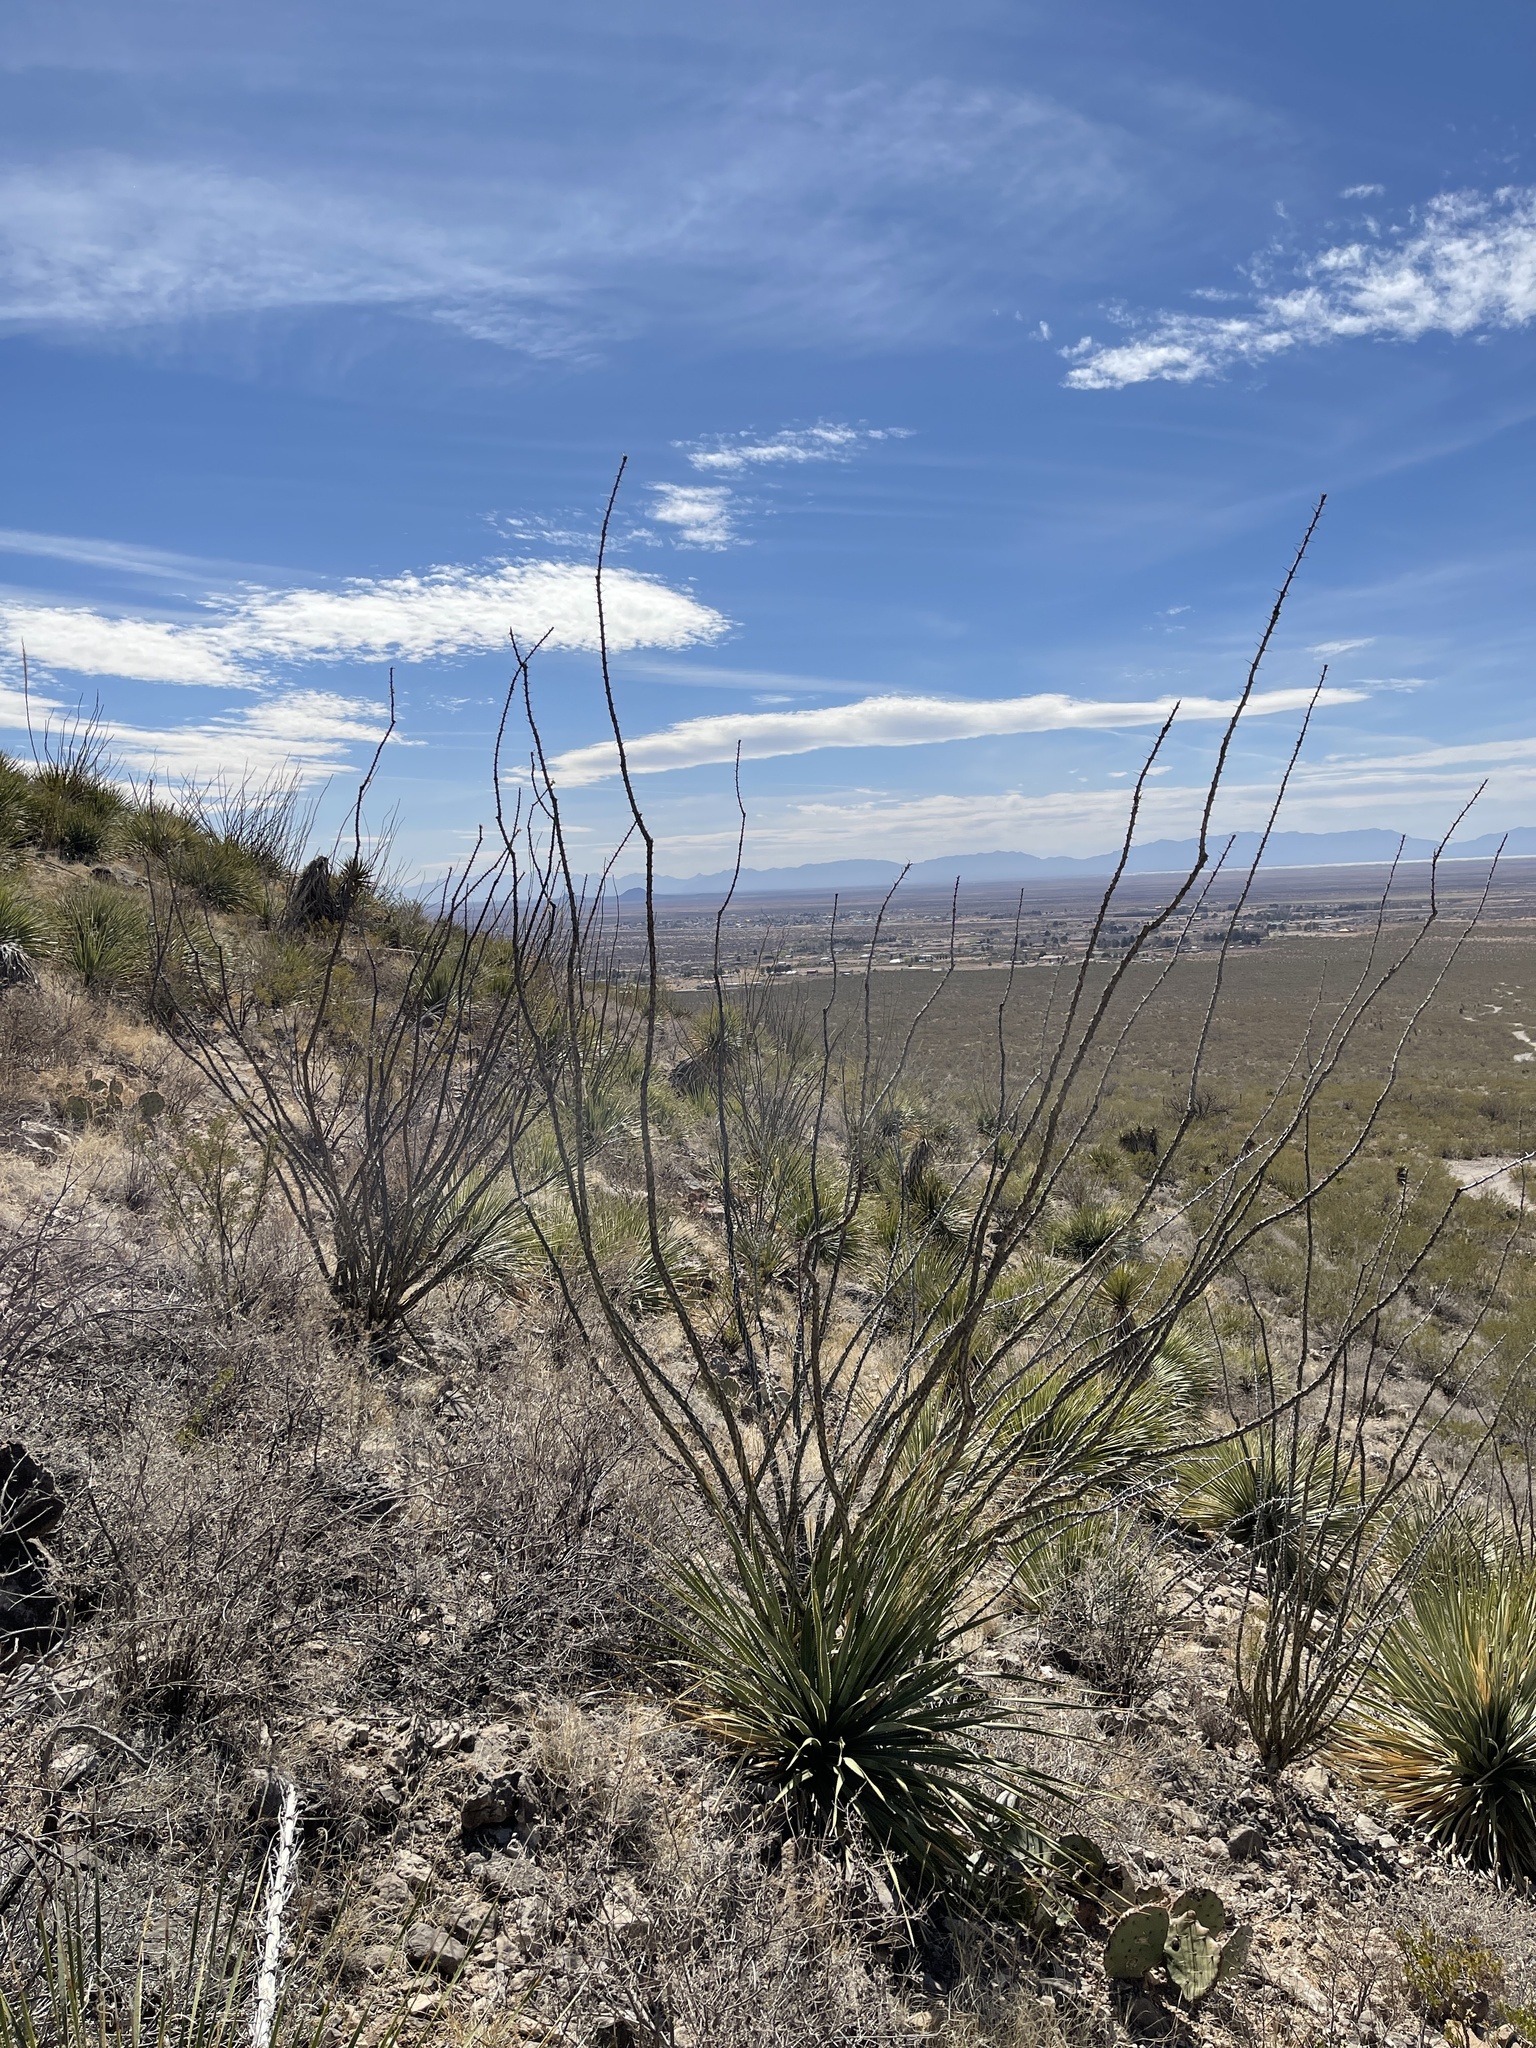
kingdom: Plantae
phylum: Tracheophyta
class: Magnoliopsida
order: Ericales
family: Fouquieriaceae
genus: Fouquieria
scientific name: Fouquieria splendens
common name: Vine-cactus
